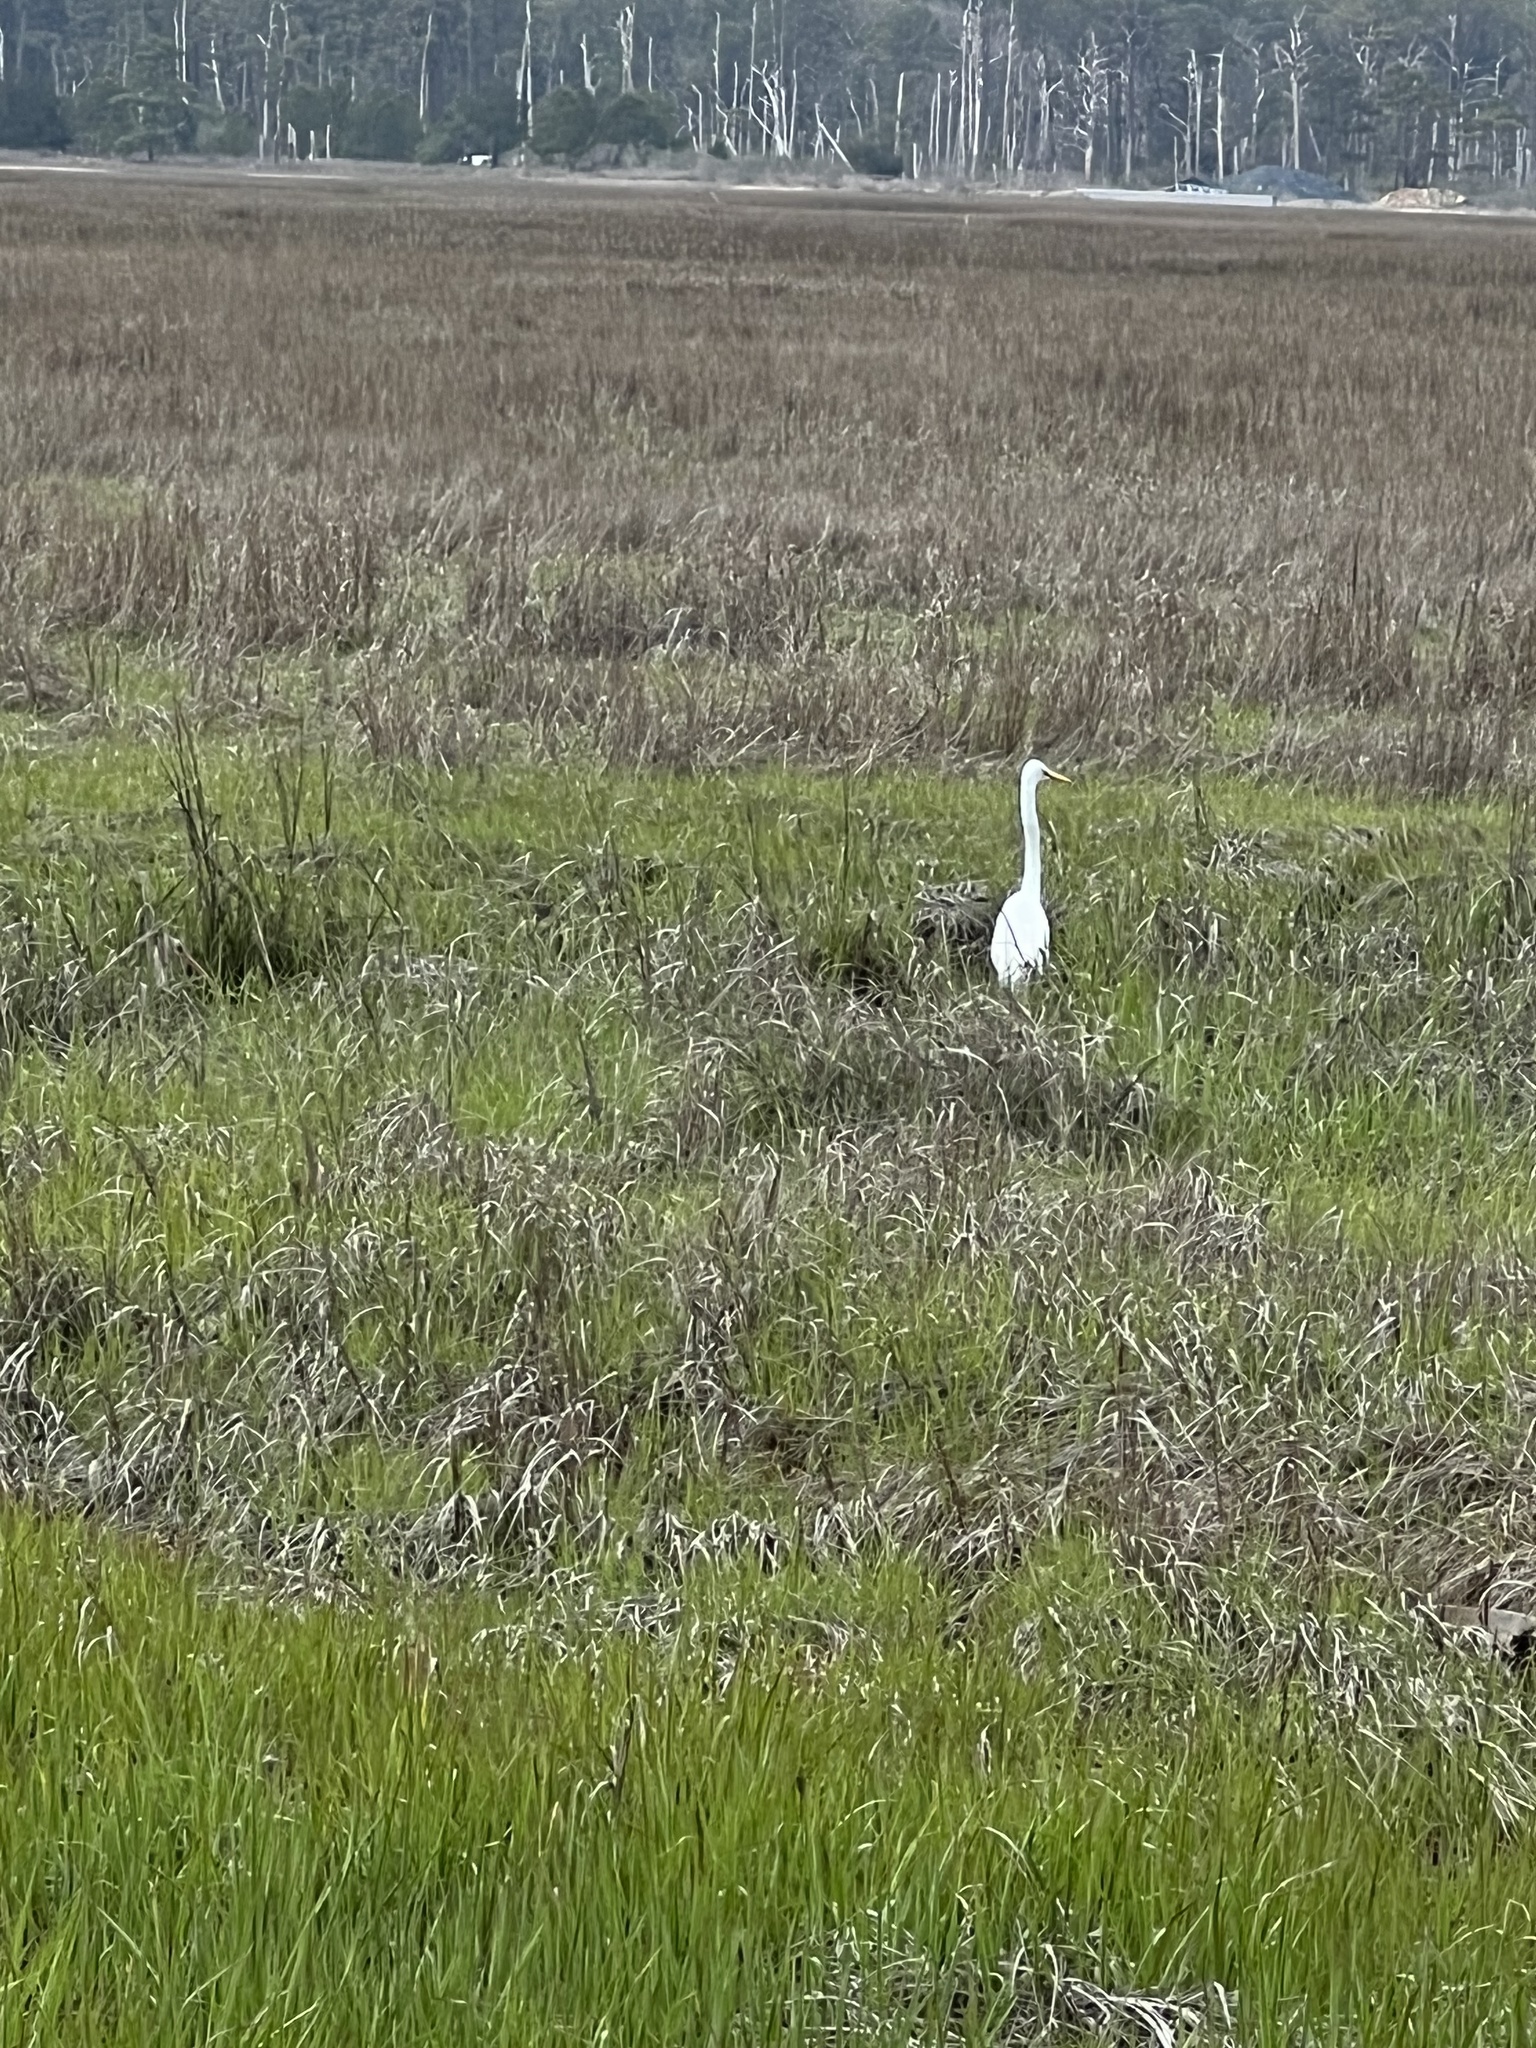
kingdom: Animalia
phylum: Chordata
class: Aves
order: Pelecaniformes
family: Ardeidae
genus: Ardea
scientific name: Ardea alba
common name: Great egret
